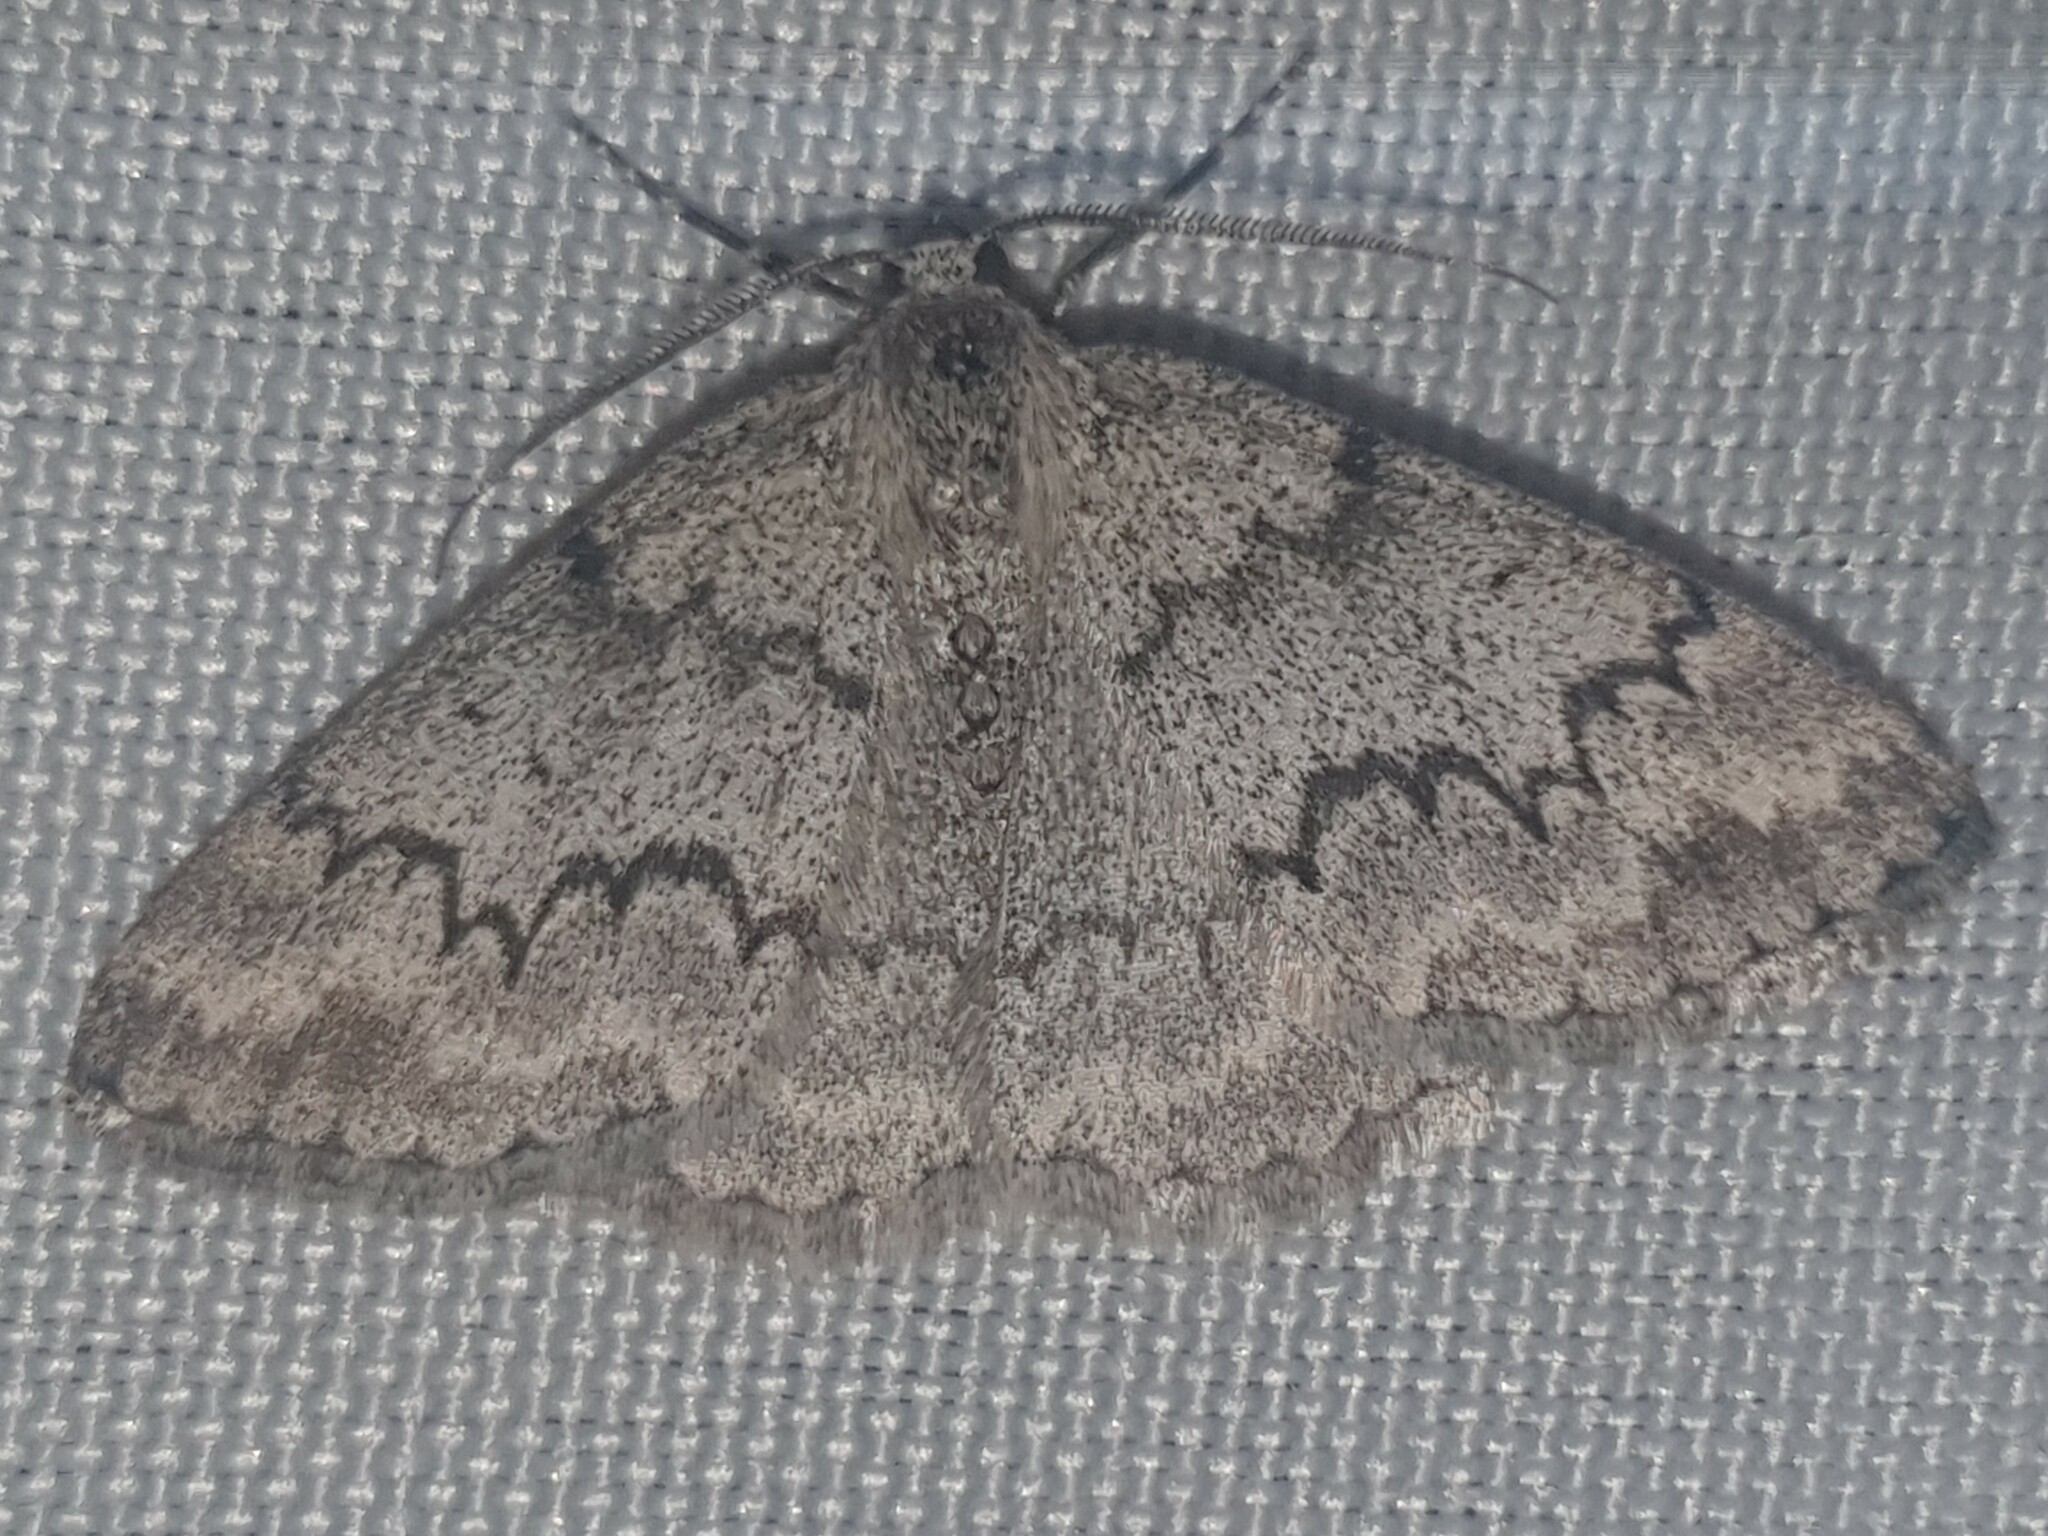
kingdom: Animalia
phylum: Arthropoda
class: Insecta
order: Lepidoptera
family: Geometridae
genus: Pseudoterpna
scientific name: Pseudoterpna coronillaria
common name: Jersey emerald
